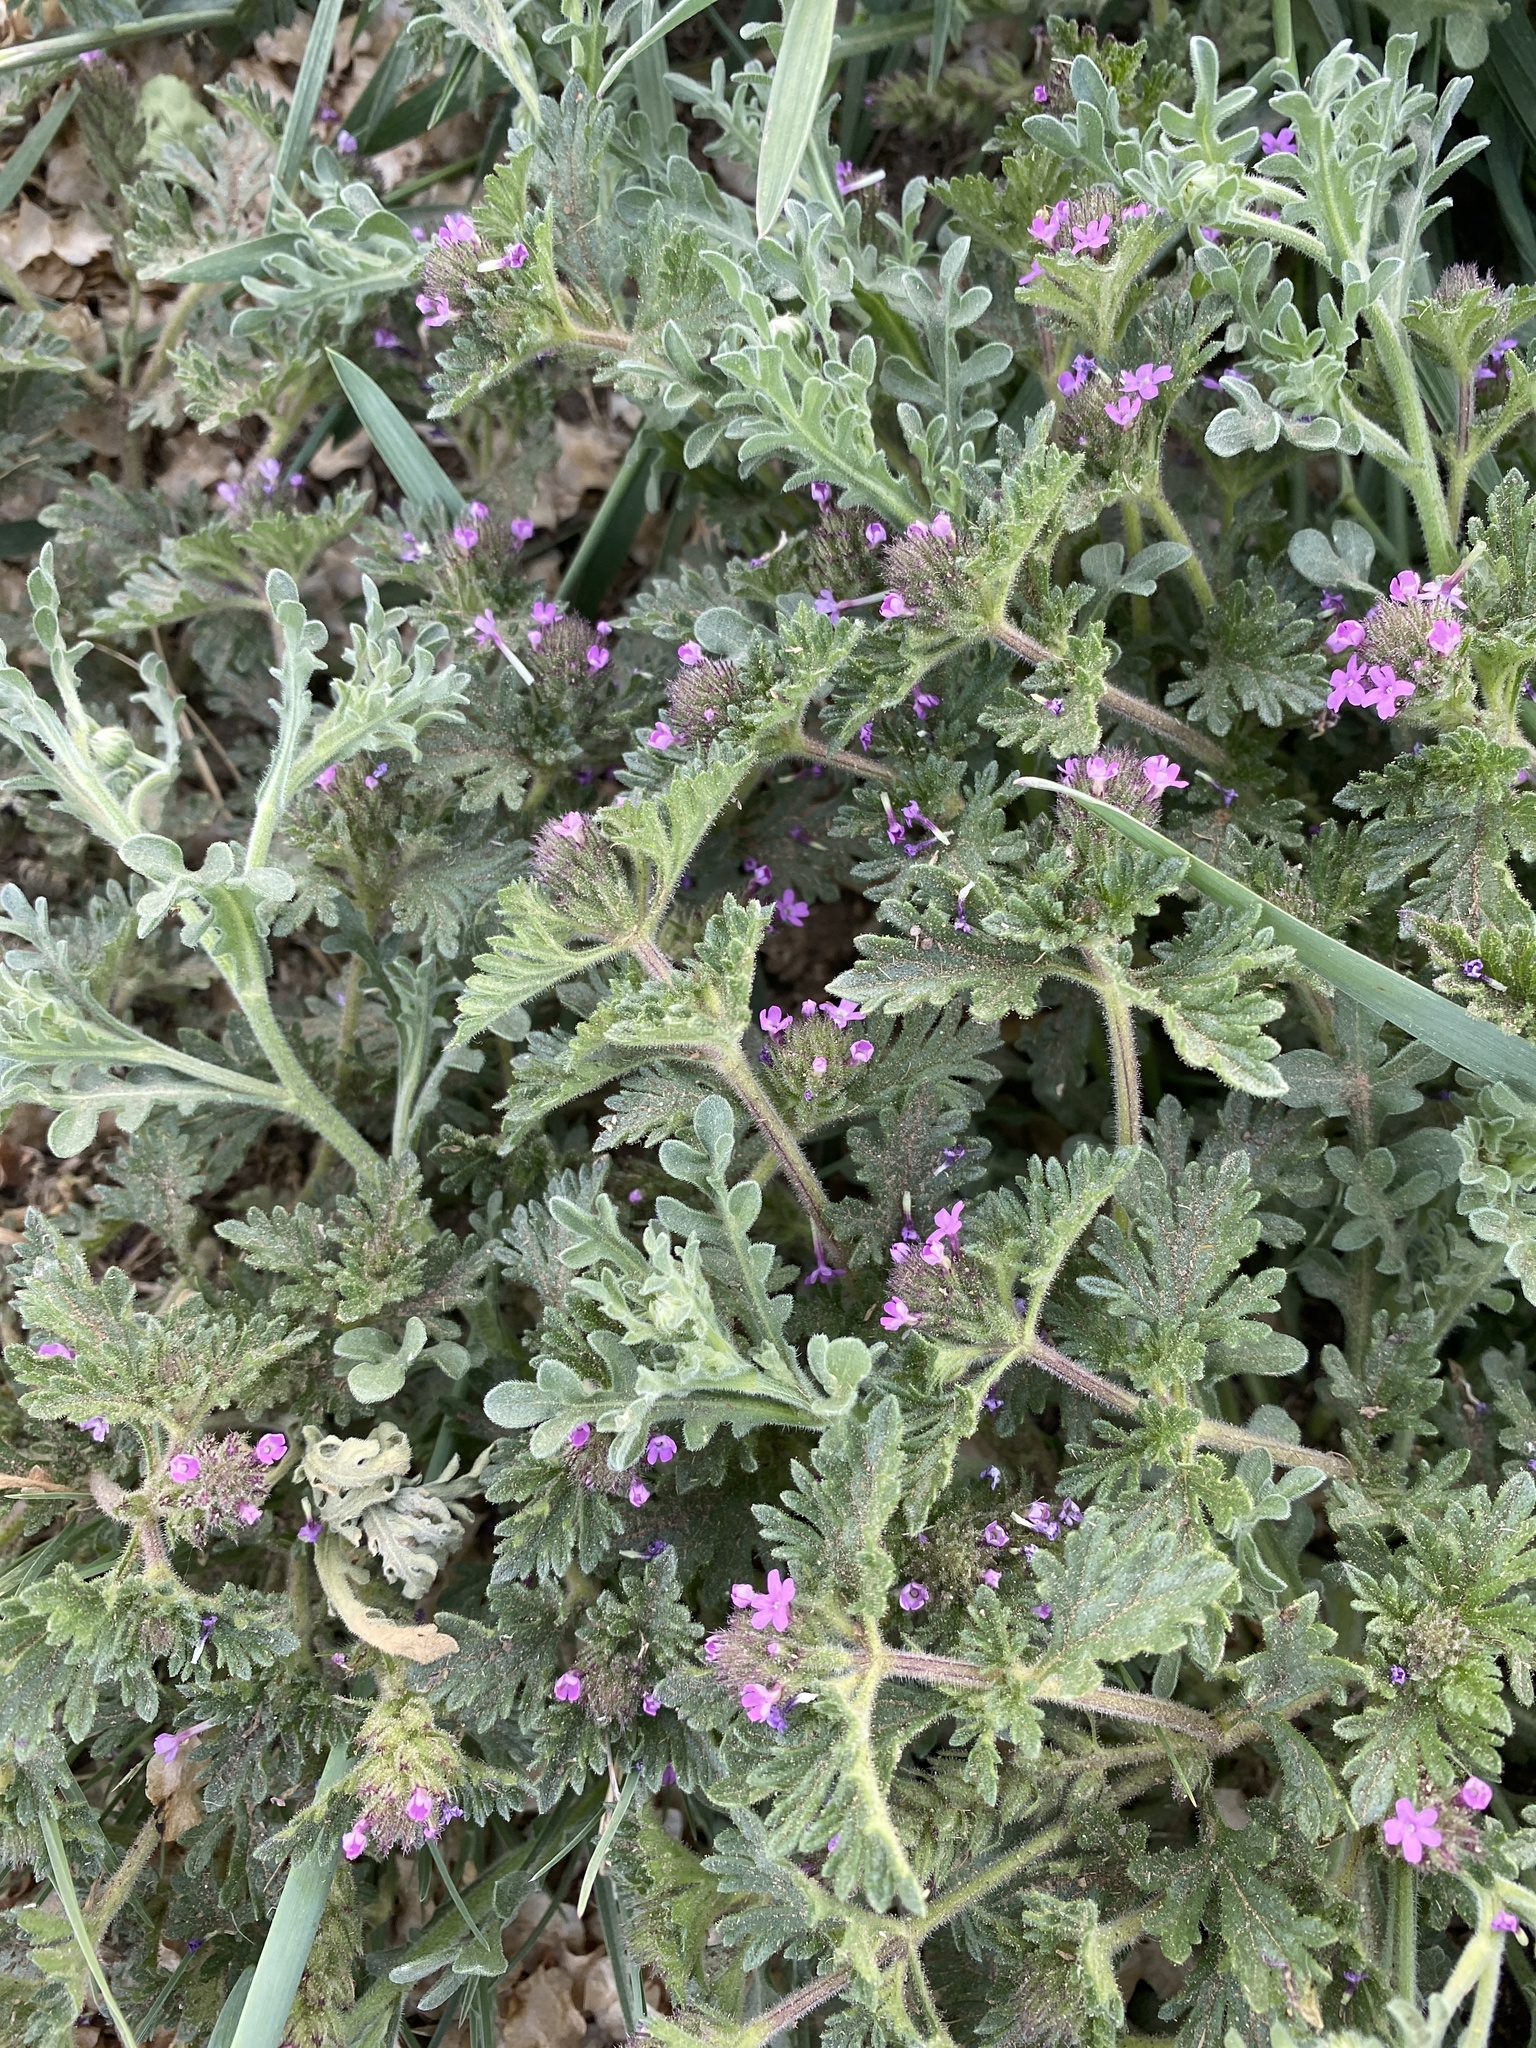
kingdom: Plantae
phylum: Tracheophyta
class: Magnoliopsida
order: Lamiales
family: Verbenaceae
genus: Verbena
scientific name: Verbena pumila
